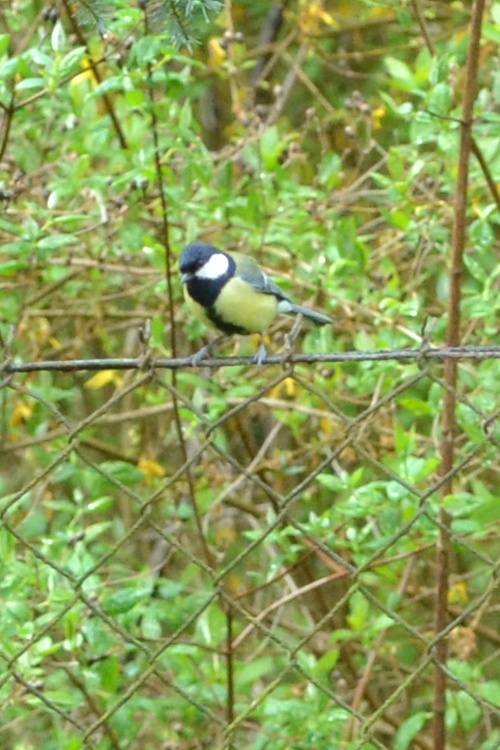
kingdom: Animalia
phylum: Chordata
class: Aves
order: Passeriformes
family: Paridae
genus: Parus
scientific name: Parus major
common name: Great tit
